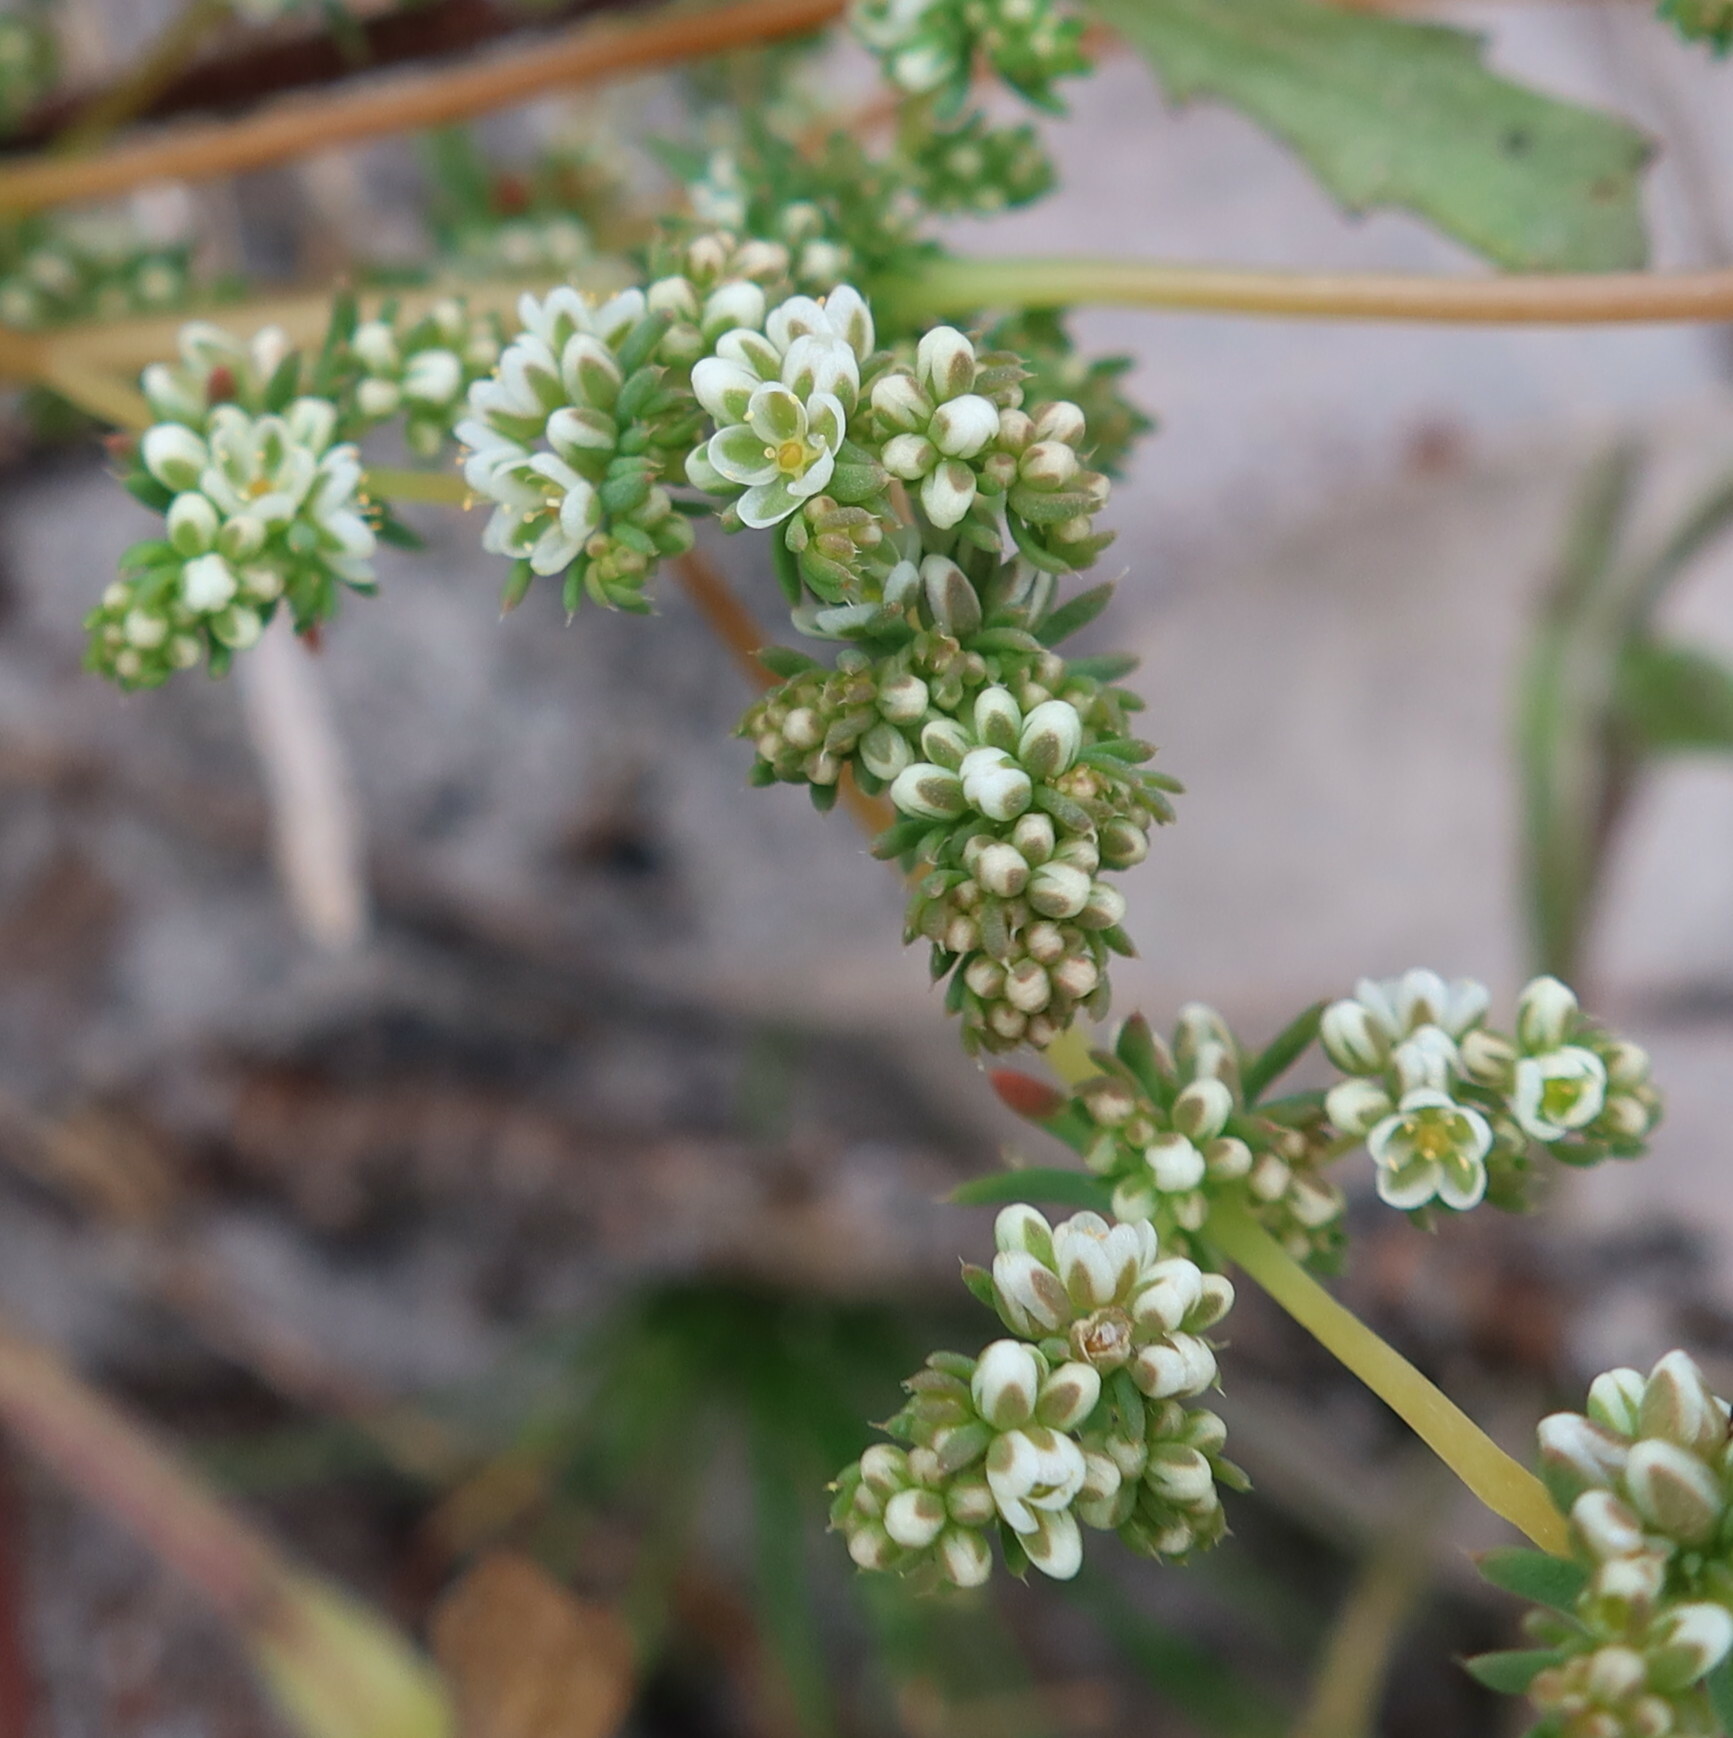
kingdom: Plantae
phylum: Tracheophyta
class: Magnoliopsida
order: Caryophyllales
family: Molluginaceae
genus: Adenogramma
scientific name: Adenogramma glomerata
